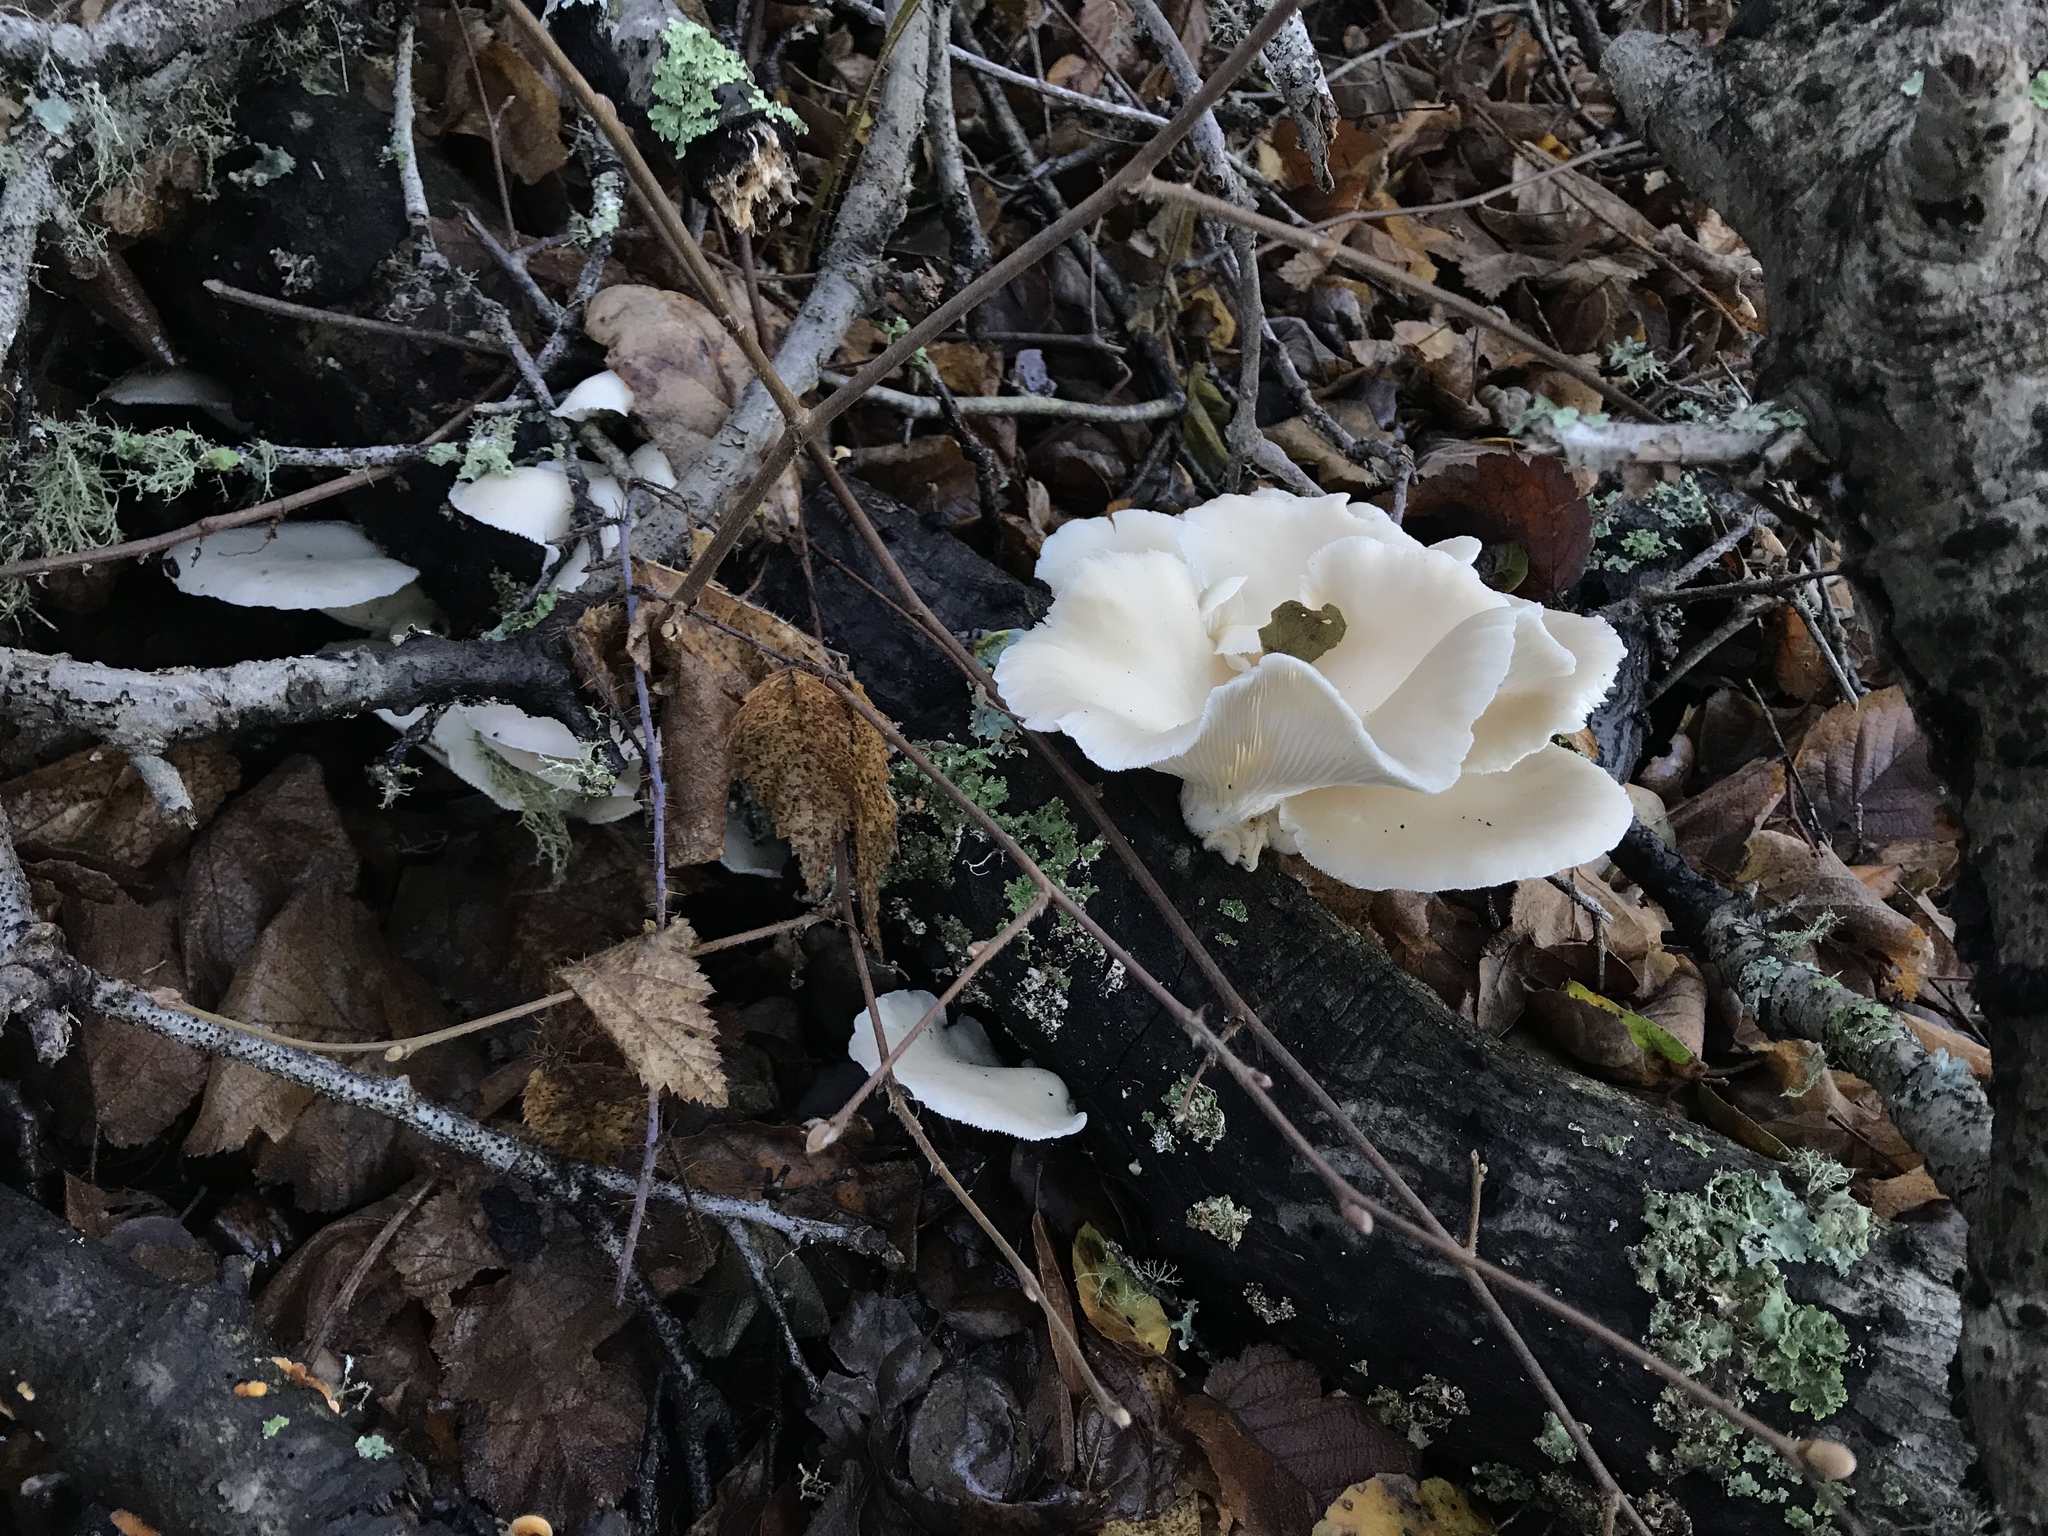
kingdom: Fungi
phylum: Basidiomycota
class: Agaricomycetes
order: Agaricales
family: Pleurotaceae
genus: Pleurotus
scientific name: Pleurotus pulmonarius
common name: Pale oyster
